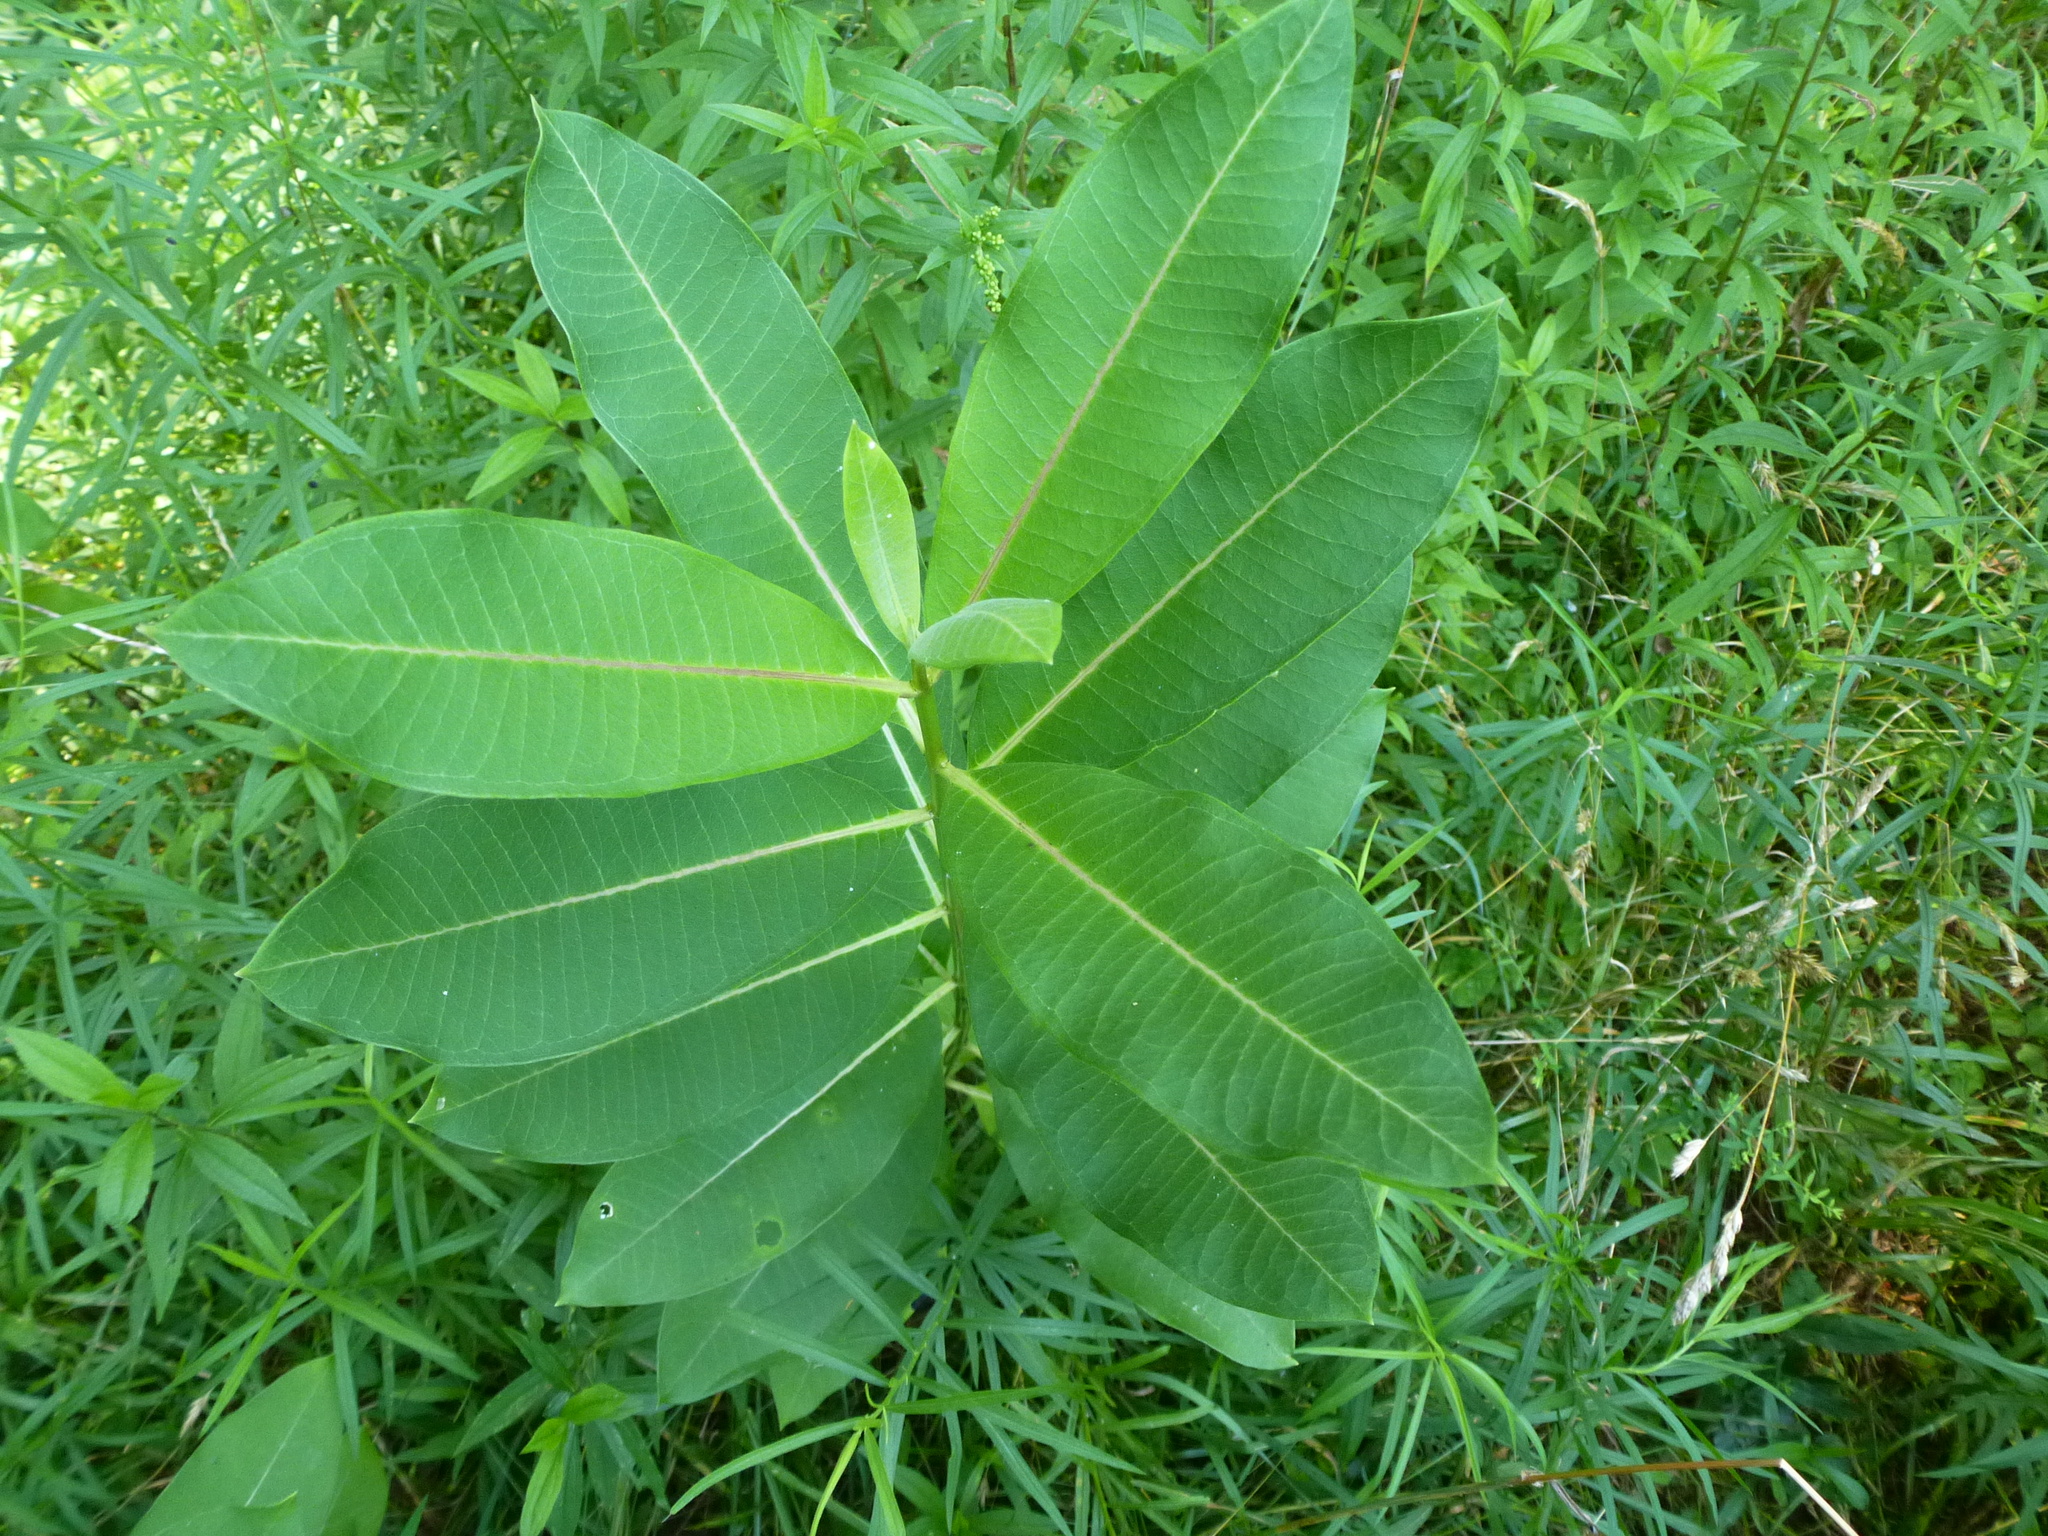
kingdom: Plantae
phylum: Tracheophyta
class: Magnoliopsida
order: Gentianales
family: Apocynaceae
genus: Asclepias
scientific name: Asclepias syriaca
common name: Common milkweed
